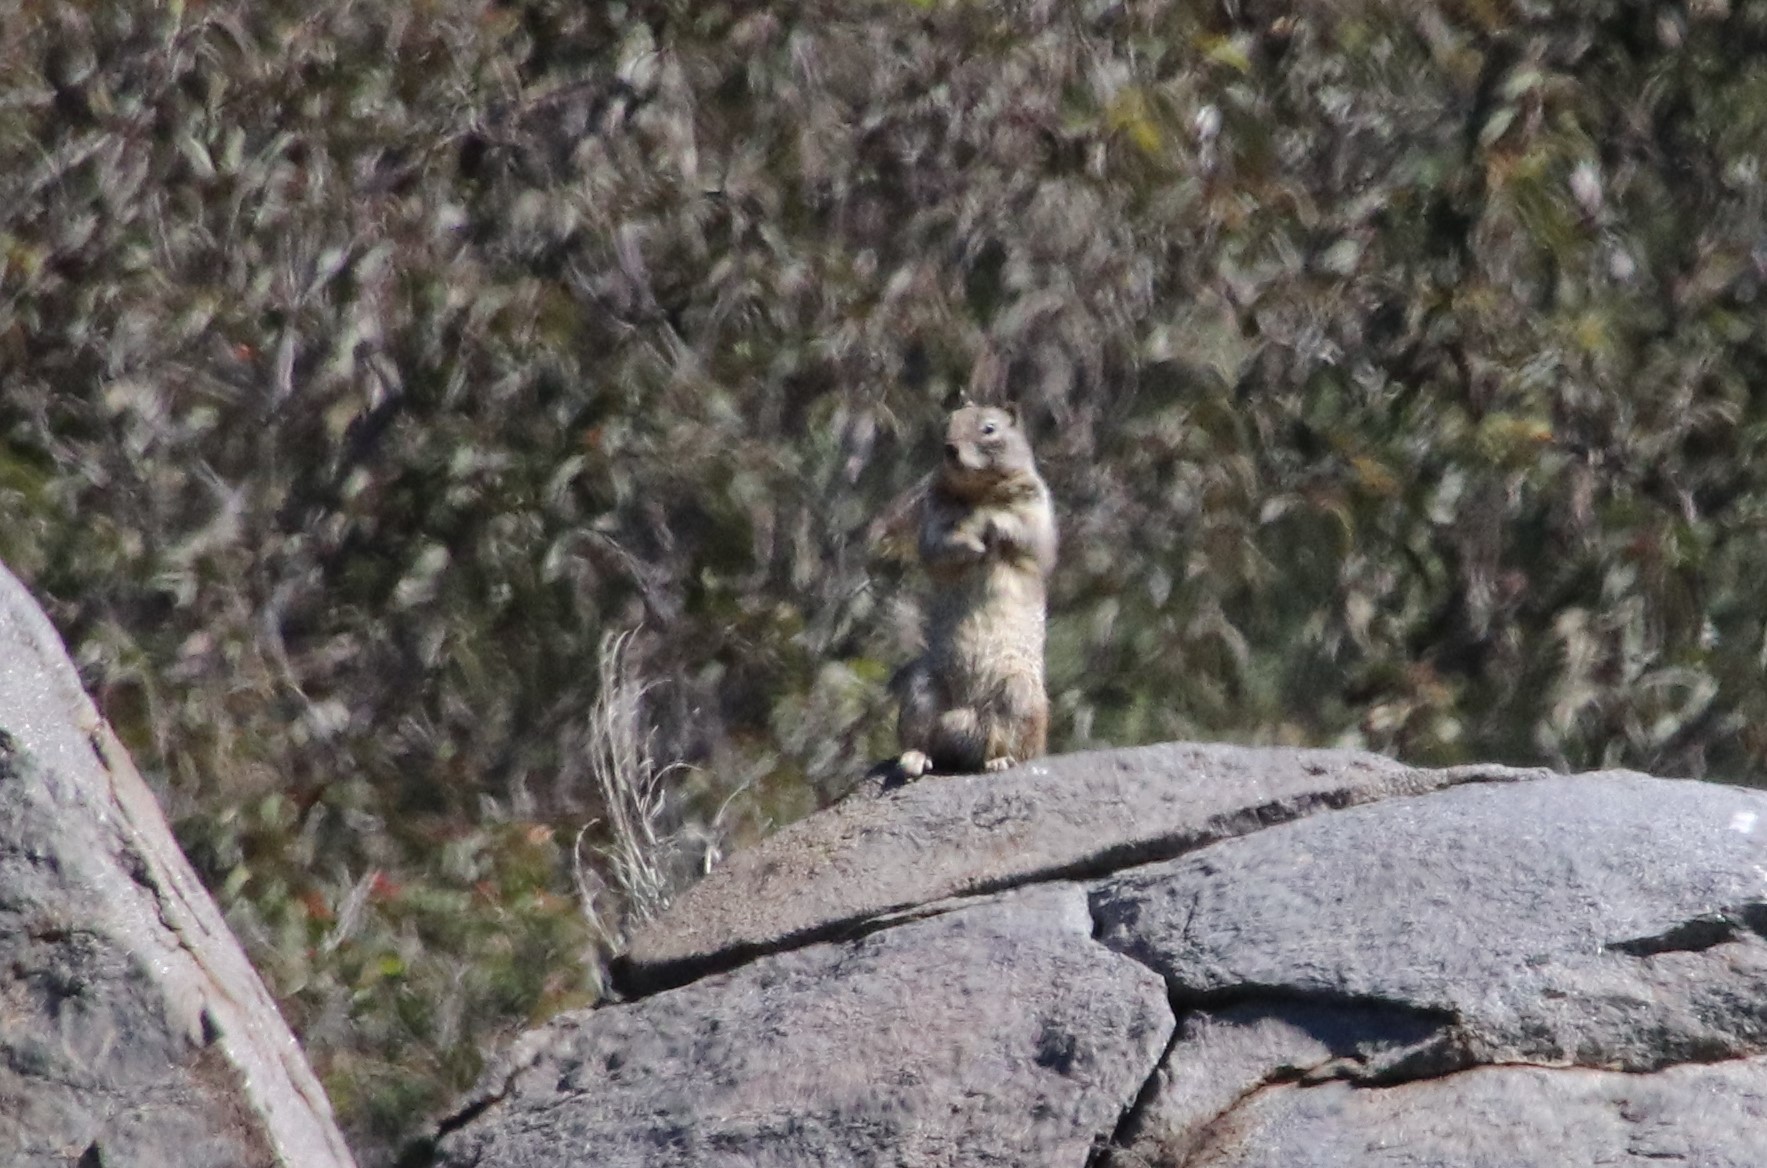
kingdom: Animalia
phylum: Chordata
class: Mammalia
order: Rodentia
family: Sciuridae
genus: Otospermophilus
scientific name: Otospermophilus beecheyi
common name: California ground squirrel
